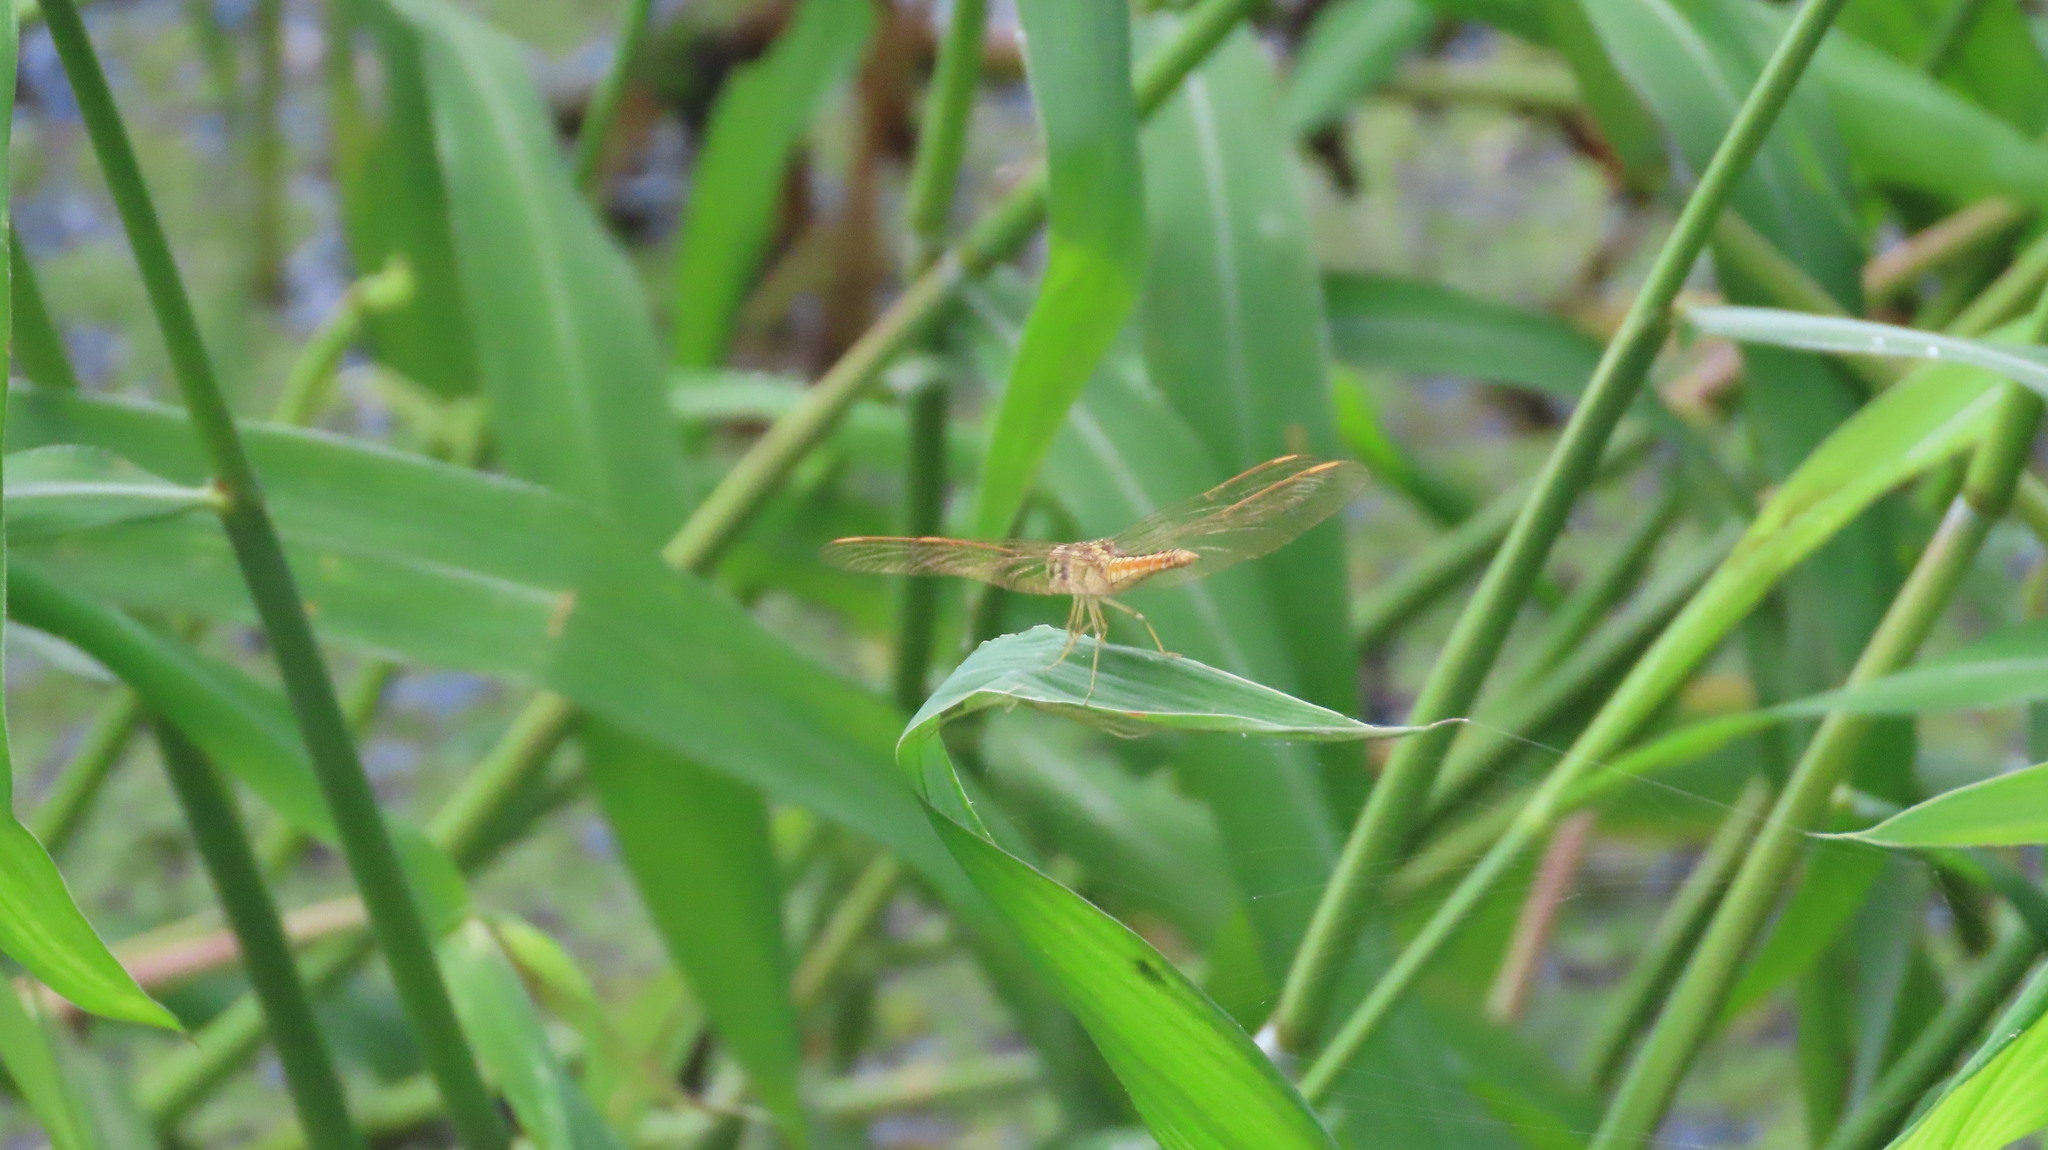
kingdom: Animalia
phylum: Arthropoda
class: Insecta
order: Odonata
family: Libellulidae
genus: Brachythemis
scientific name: Brachythemis contaminata
